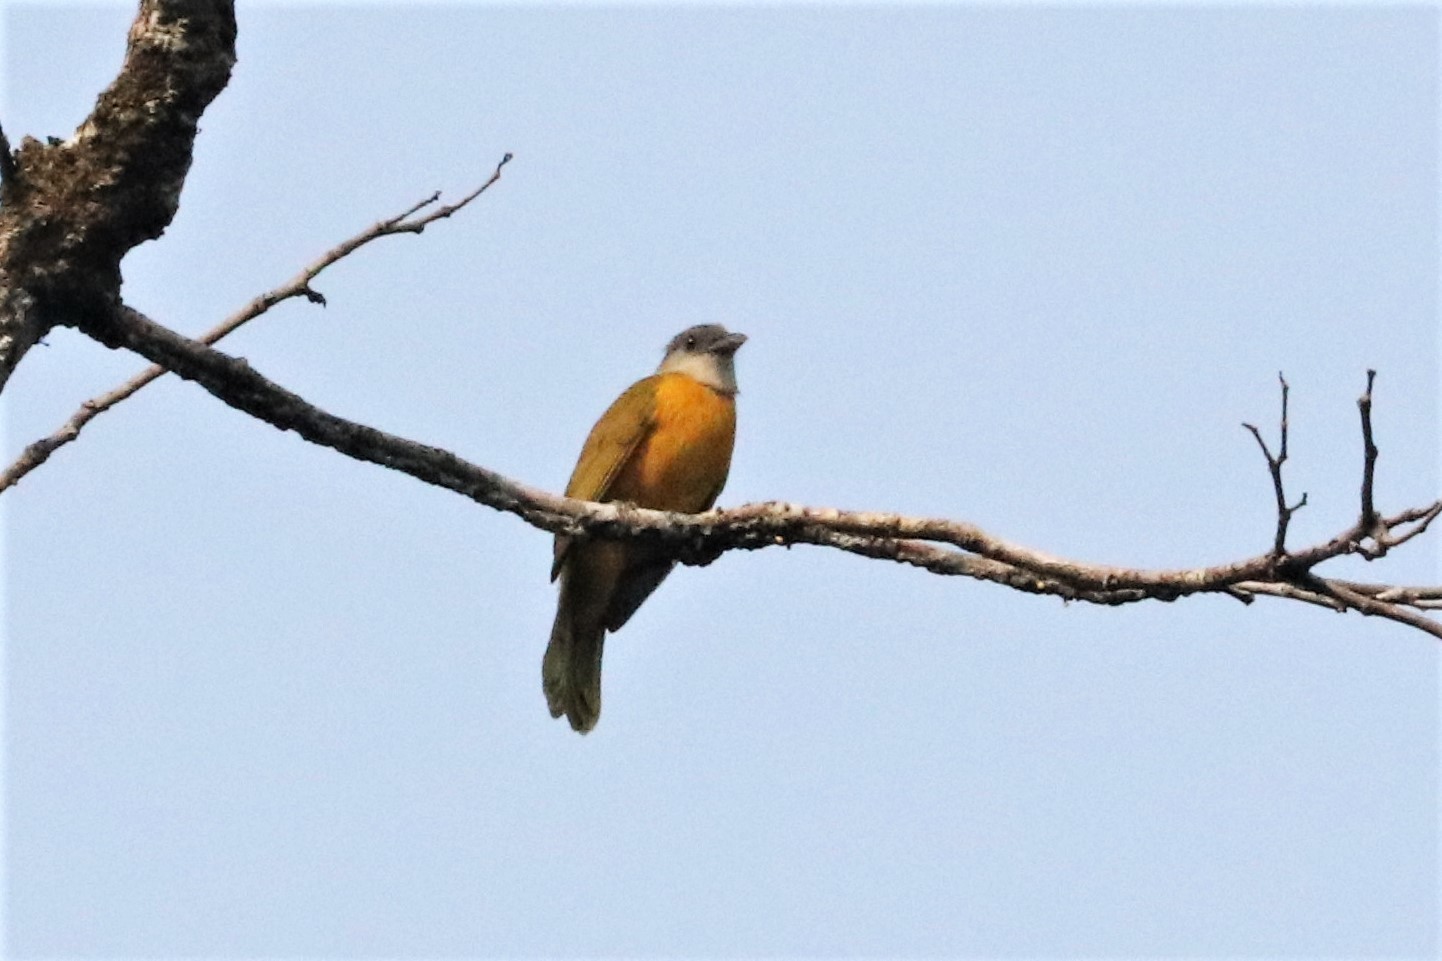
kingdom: Animalia
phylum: Chordata
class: Aves
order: Passeriformes
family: Thraupidae
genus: Eucometis
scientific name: Eucometis penicillata
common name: Grey-headed tanager
